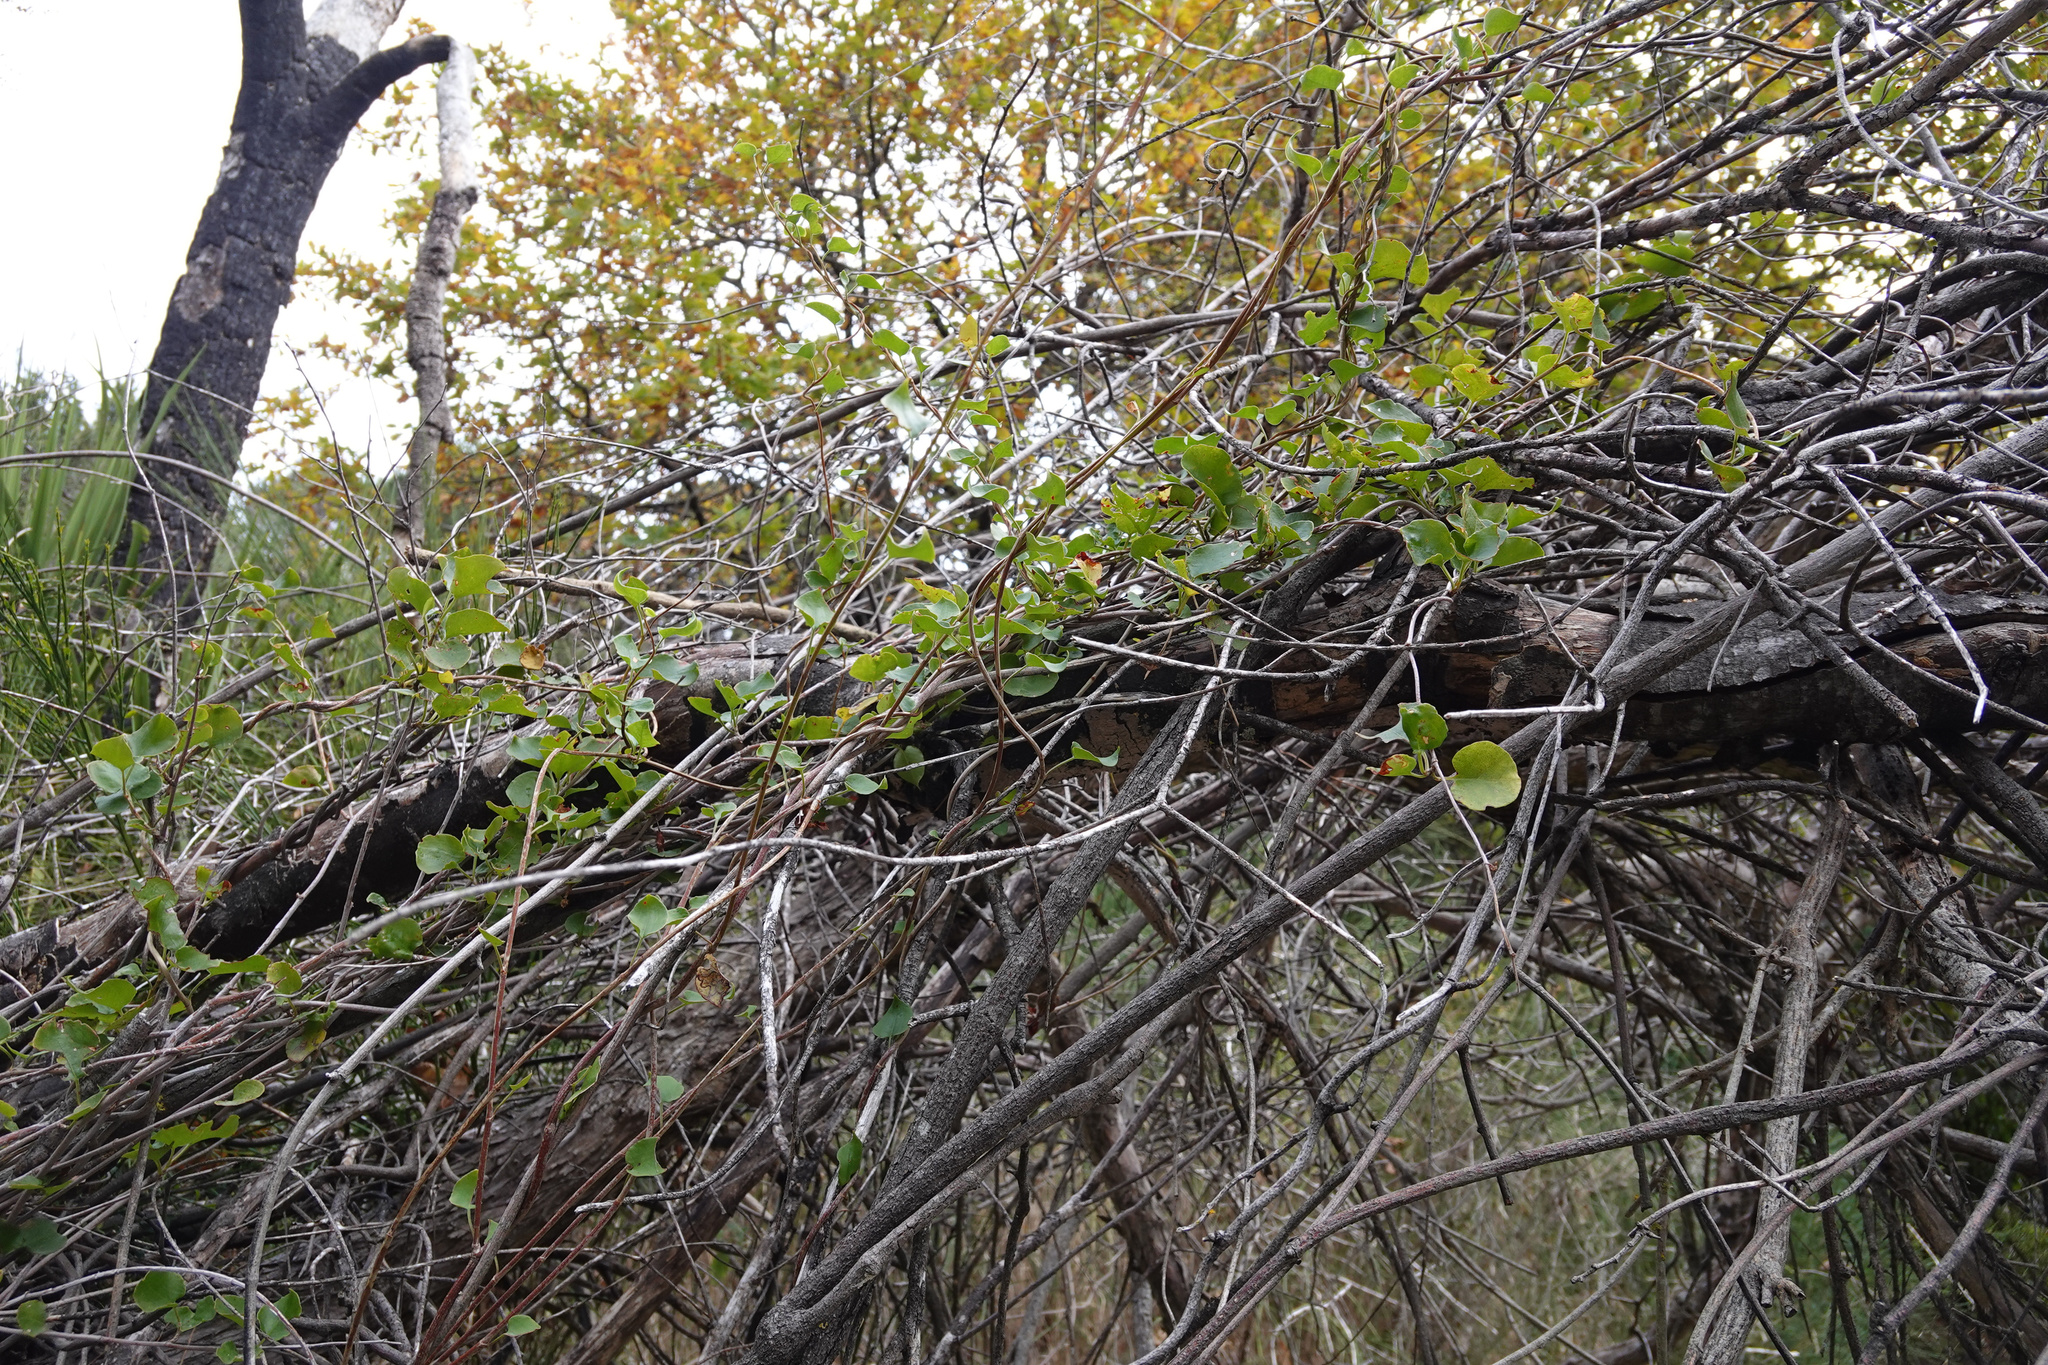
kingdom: Plantae
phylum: Tracheophyta
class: Magnoliopsida
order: Caryophyllales
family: Polygonaceae
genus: Muehlenbeckia
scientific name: Muehlenbeckia australis
